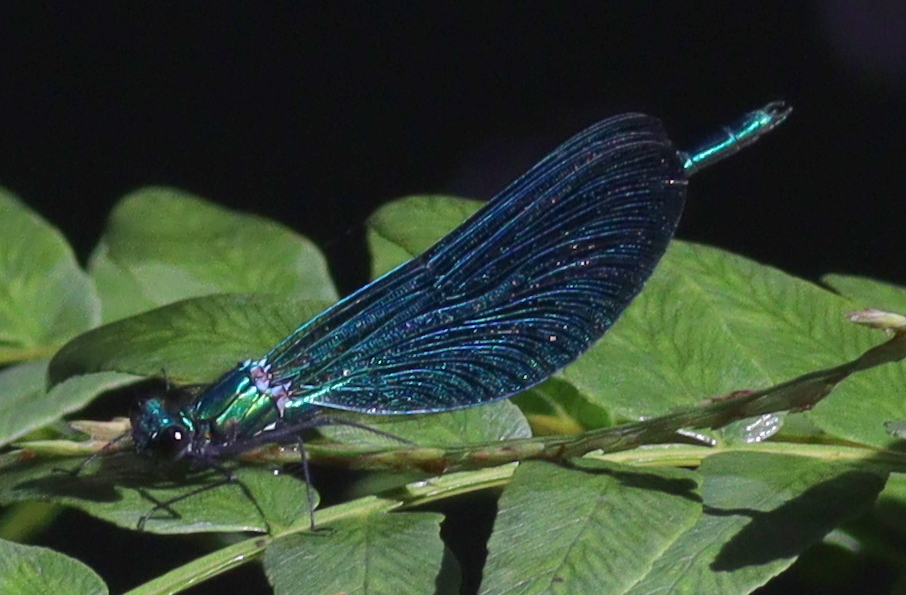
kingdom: Animalia
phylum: Arthropoda
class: Insecta
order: Odonata
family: Calopterygidae
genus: Calopteryx
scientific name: Calopteryx virgo
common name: Beautiful demoiselle
